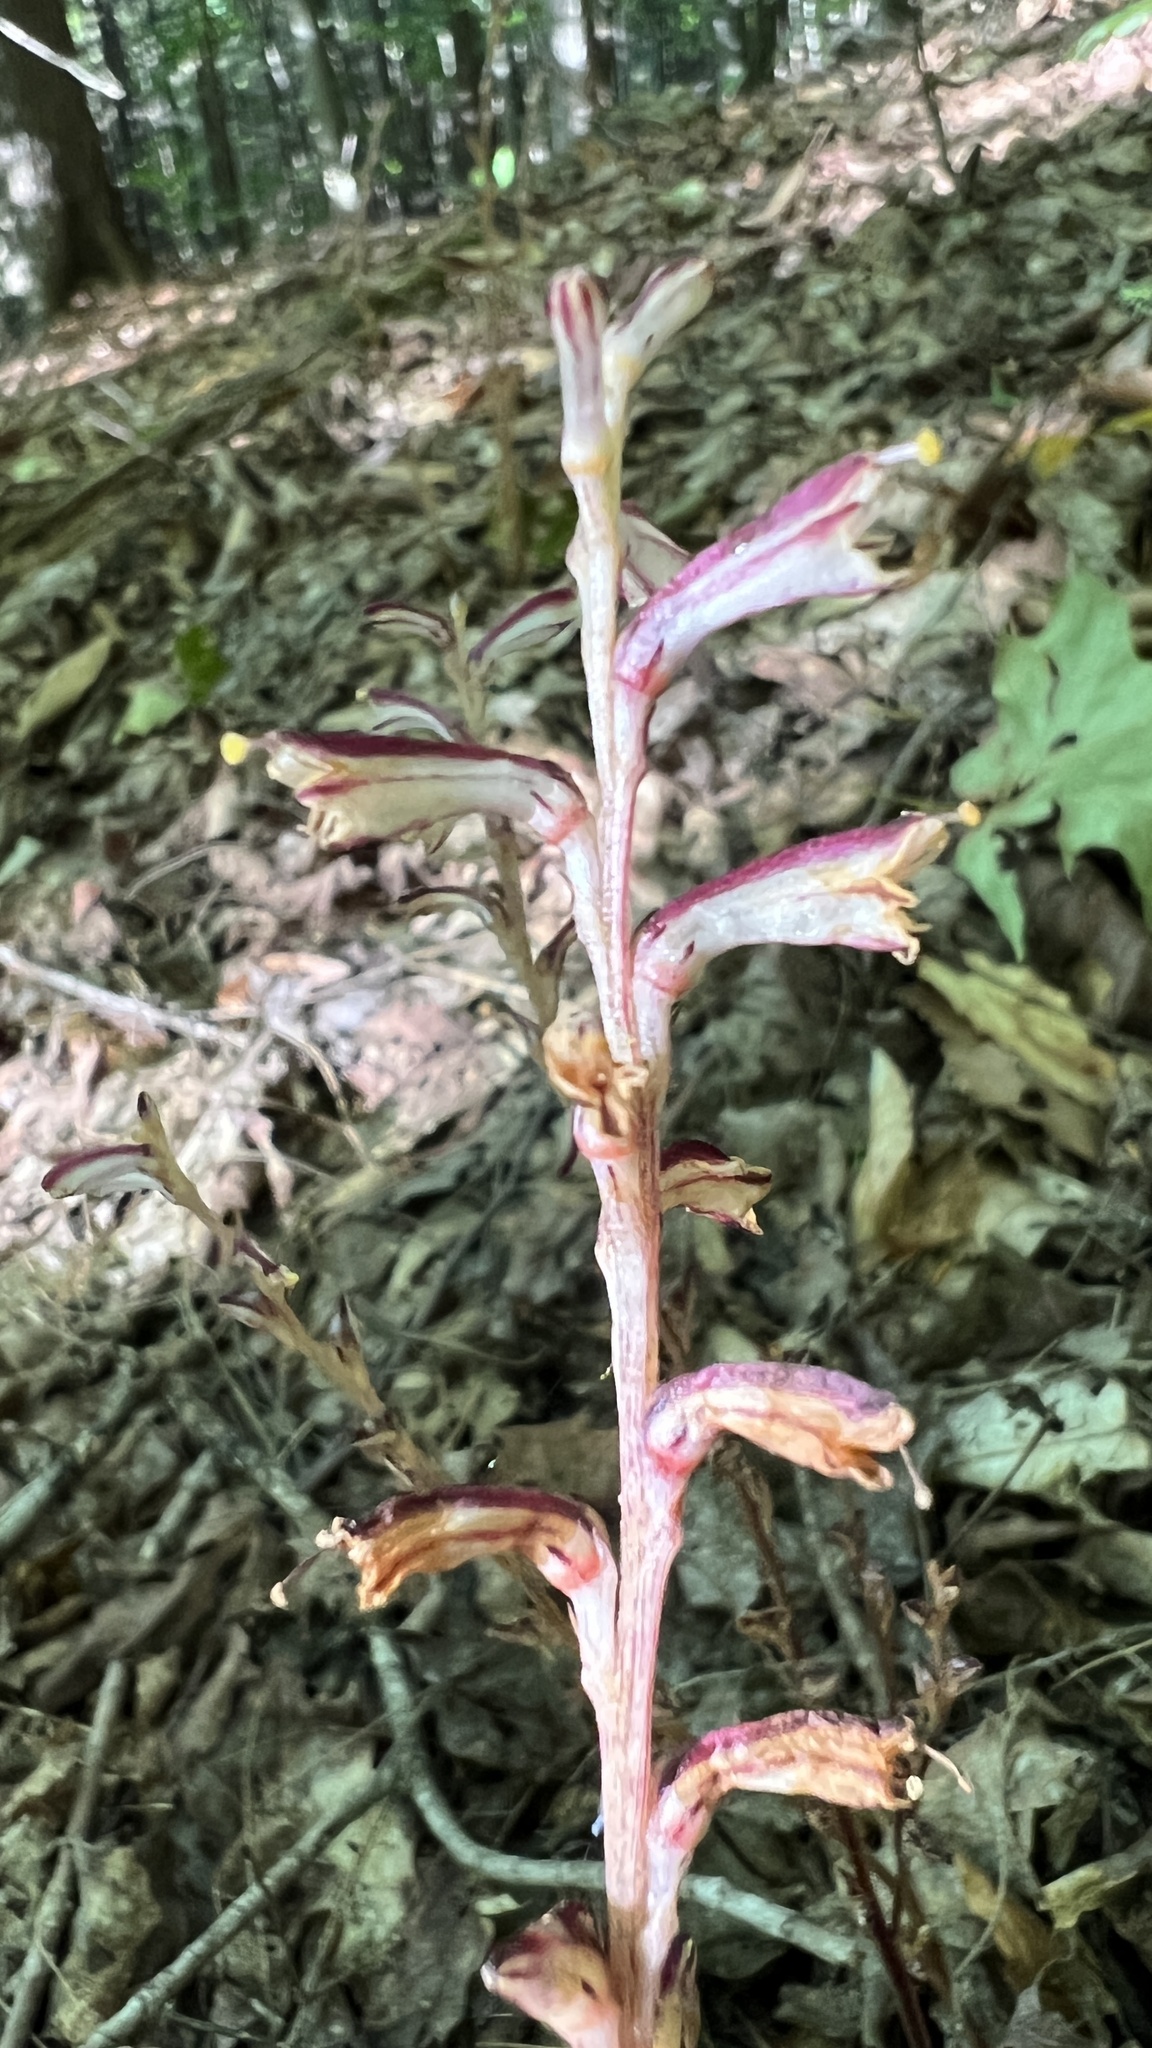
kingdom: Plantae
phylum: Tracheophyta
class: Magnoliopsida
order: Lamiales
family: Orobanchaceae
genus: Epifagus
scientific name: Epifagus virginiana
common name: Beechdrops
